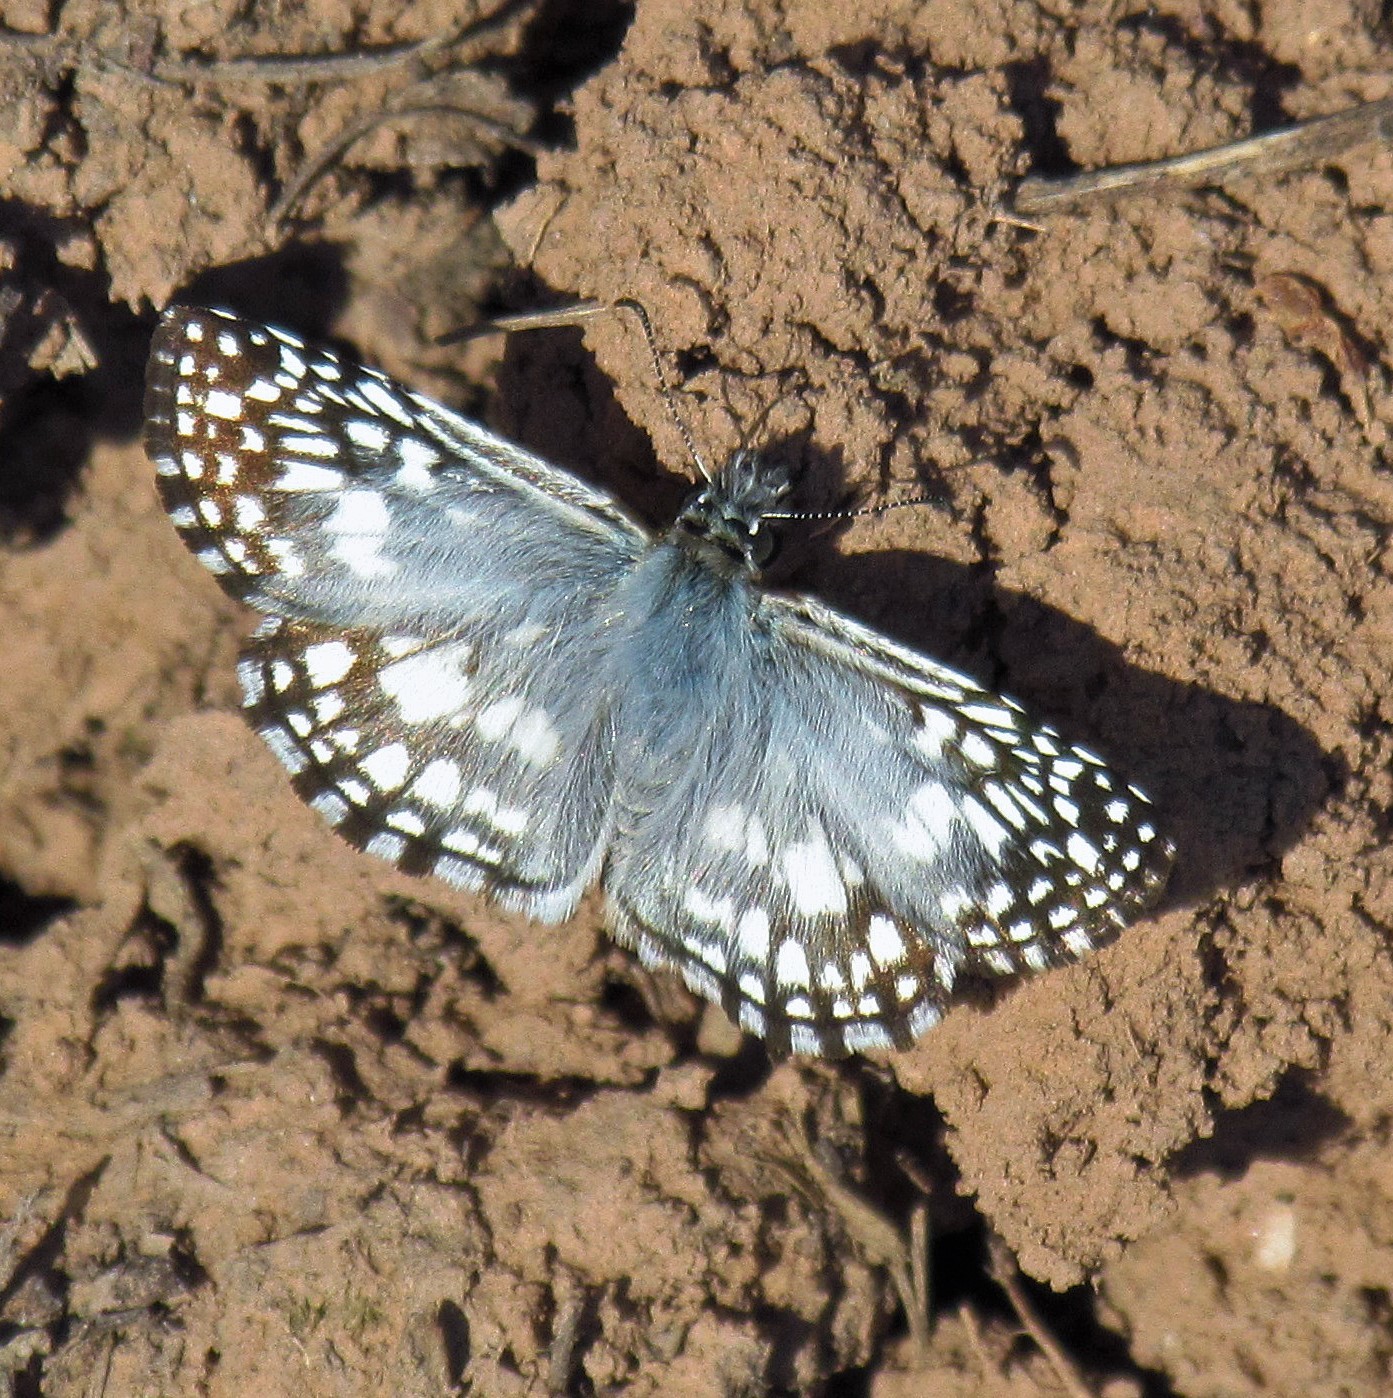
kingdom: Animalia
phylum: Arthropoda
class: Insecta
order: Lepidoptera
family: Hesperiidae
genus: Pyrgus
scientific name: Pyrgus oileus
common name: Tropical checkered-skipper
